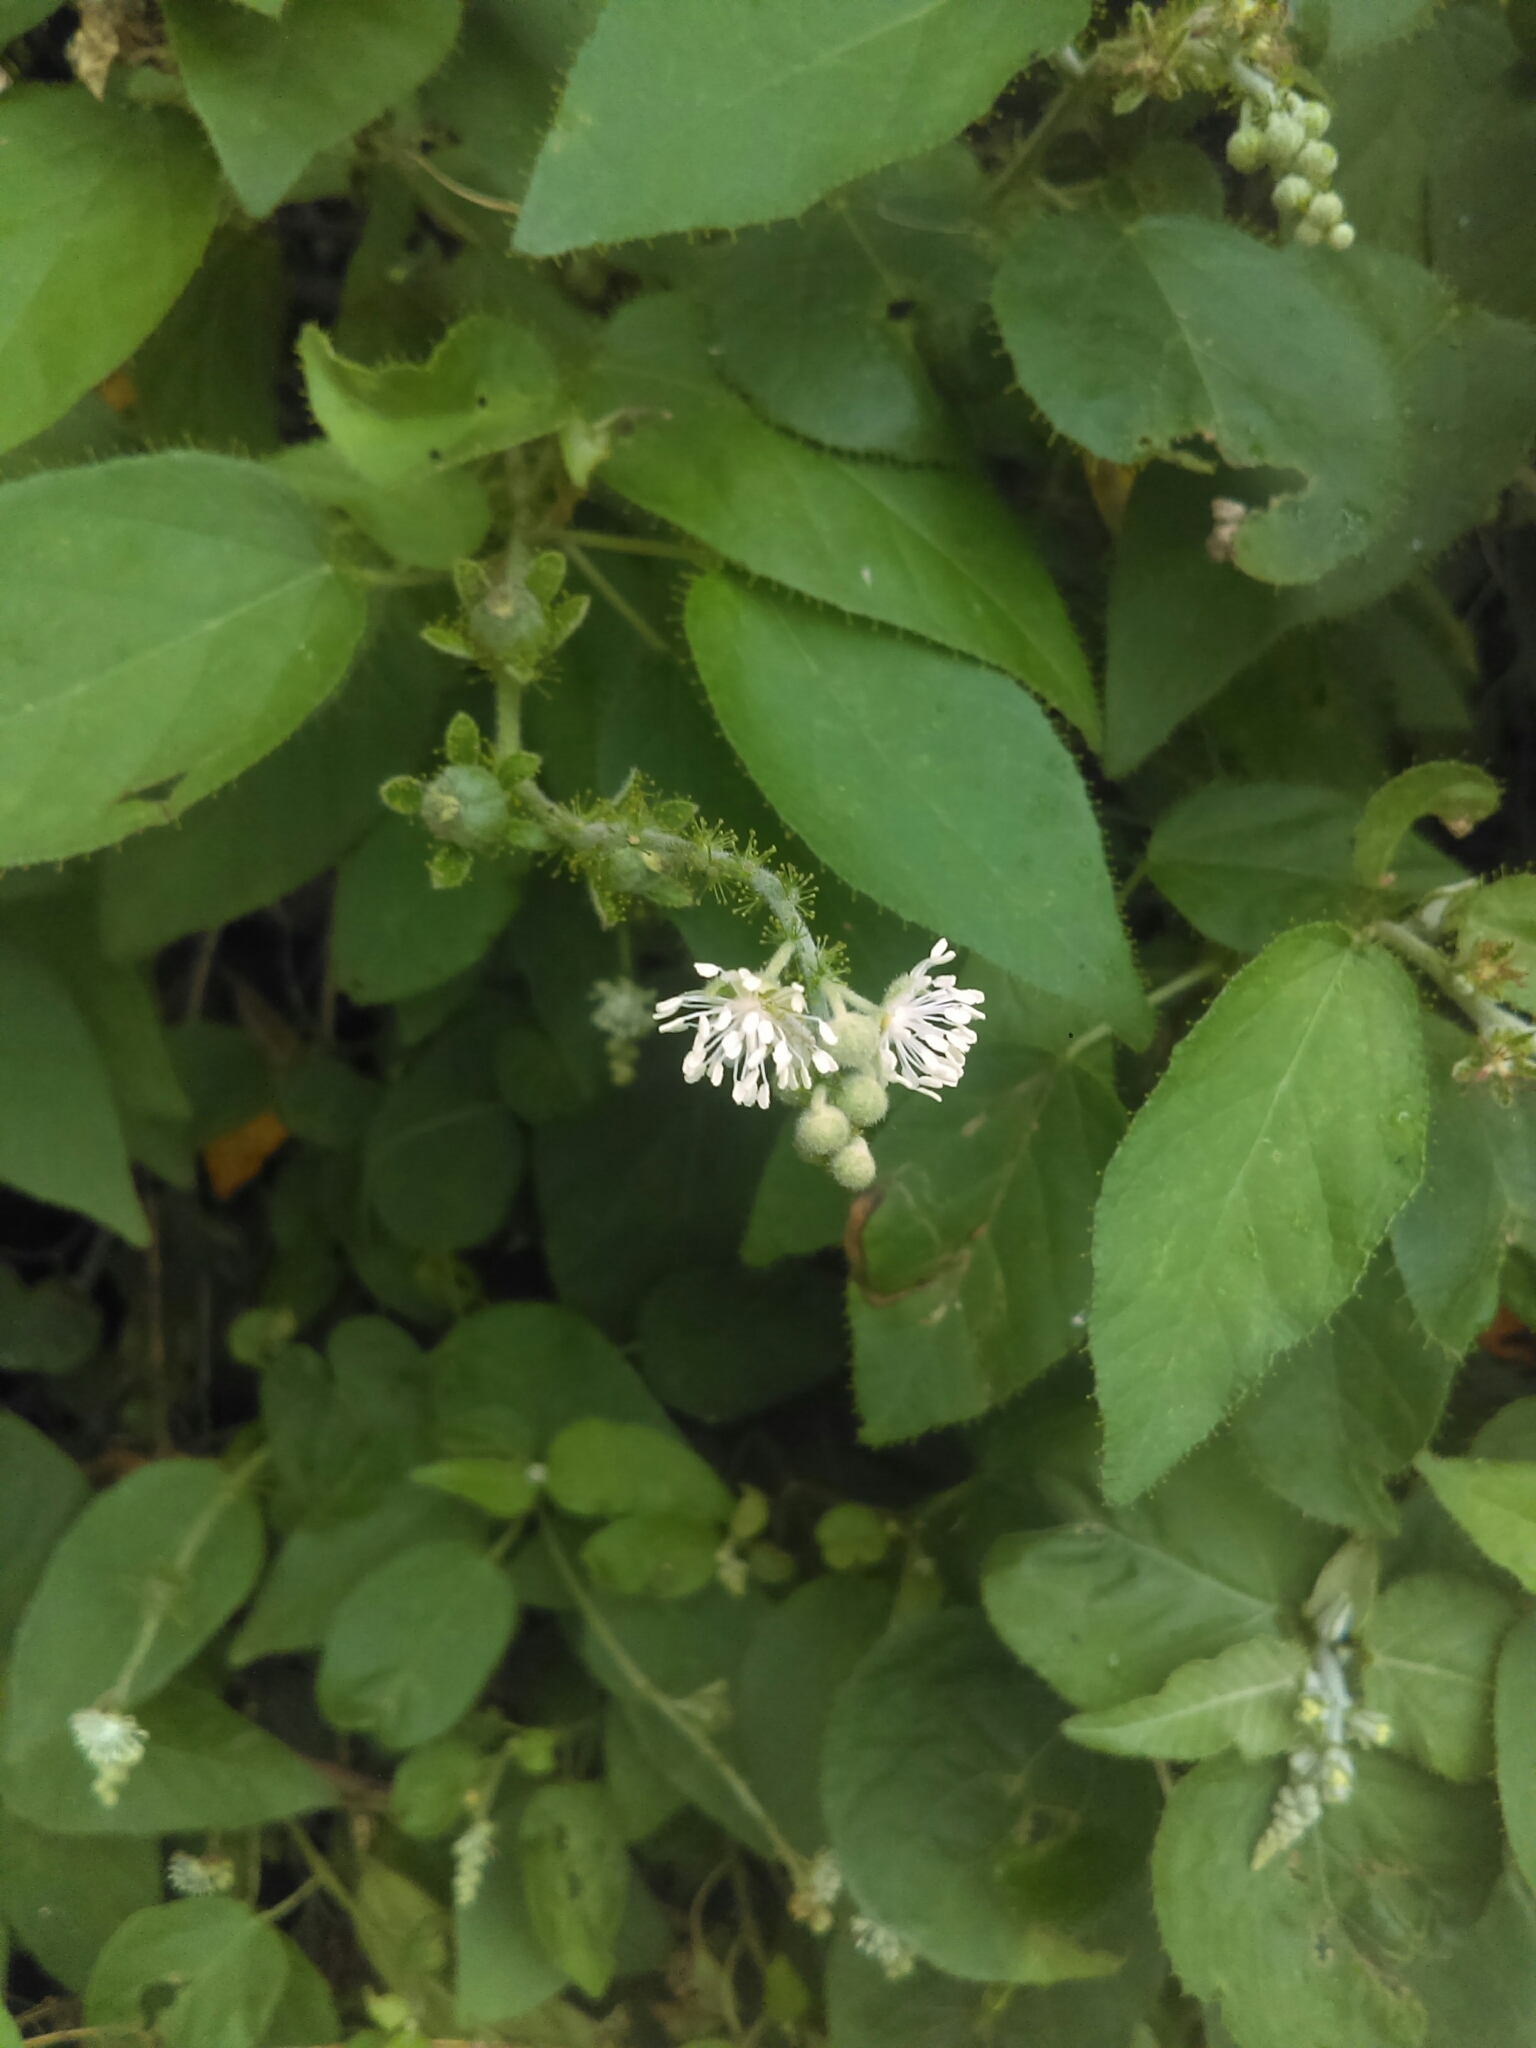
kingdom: Plantae
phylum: Tracheophyta
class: Magnoliopsida
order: Malpighiales
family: Euphorbiaceae
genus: Croton
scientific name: Croton ciliatoglandulifer
